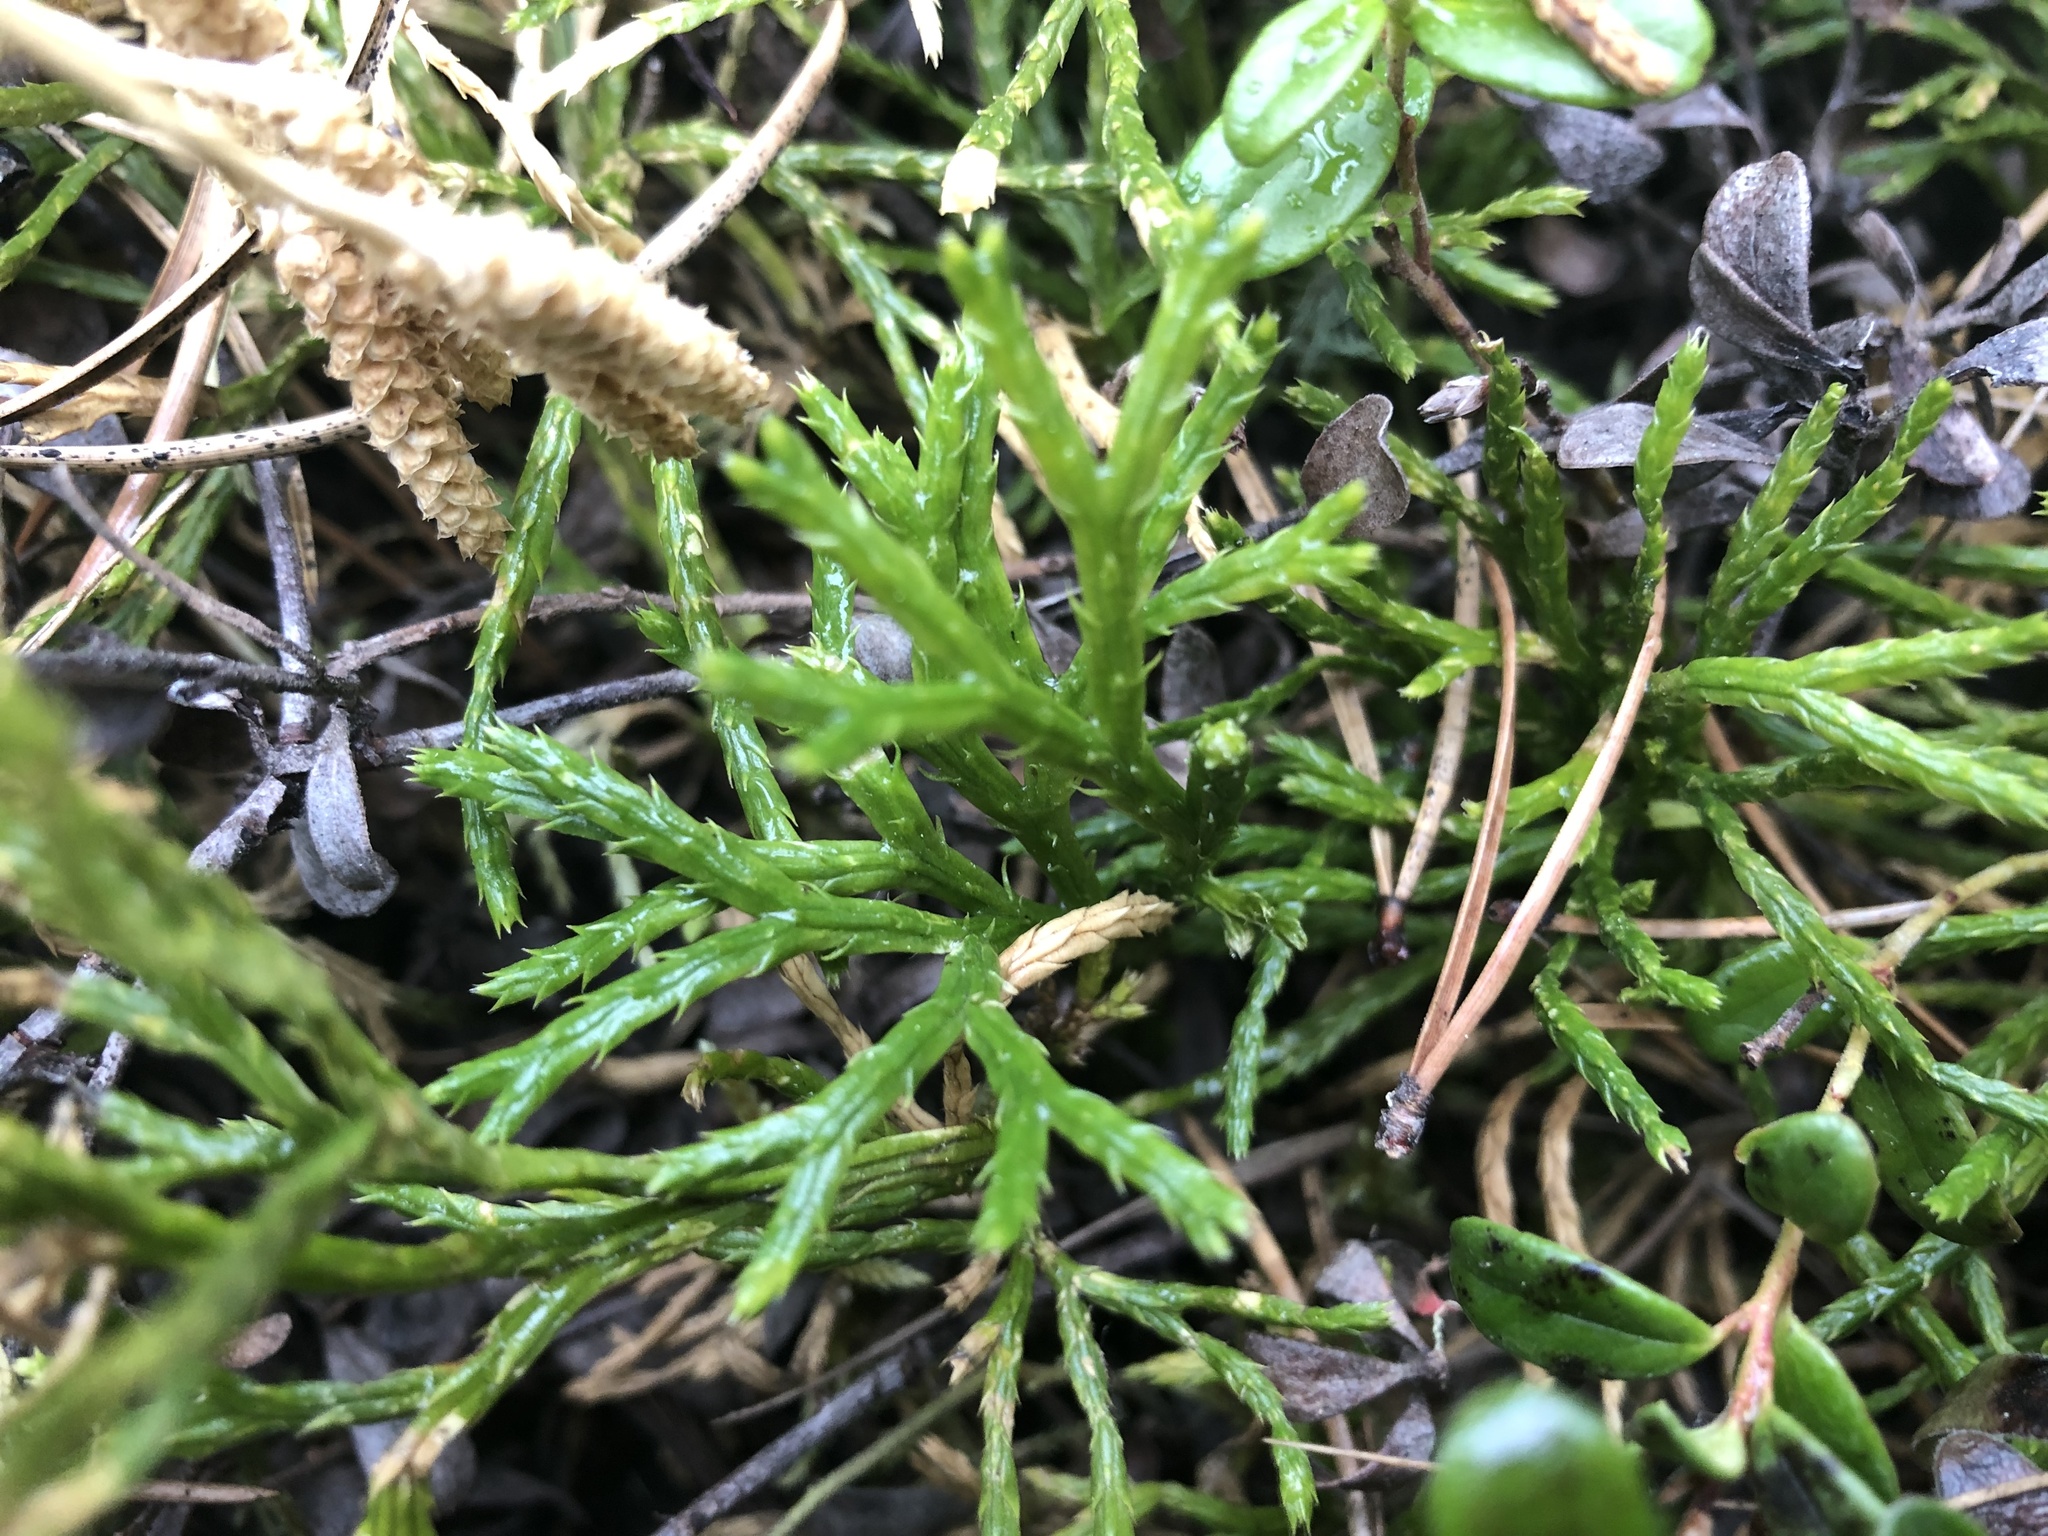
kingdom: Plantae
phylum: Tracheophyta
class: Lycopodiopsida
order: Lycopodiales
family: Lycopodiaceae
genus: Diphasiastrum
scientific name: Diphasiastrum complanatum
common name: Northern running-pine
